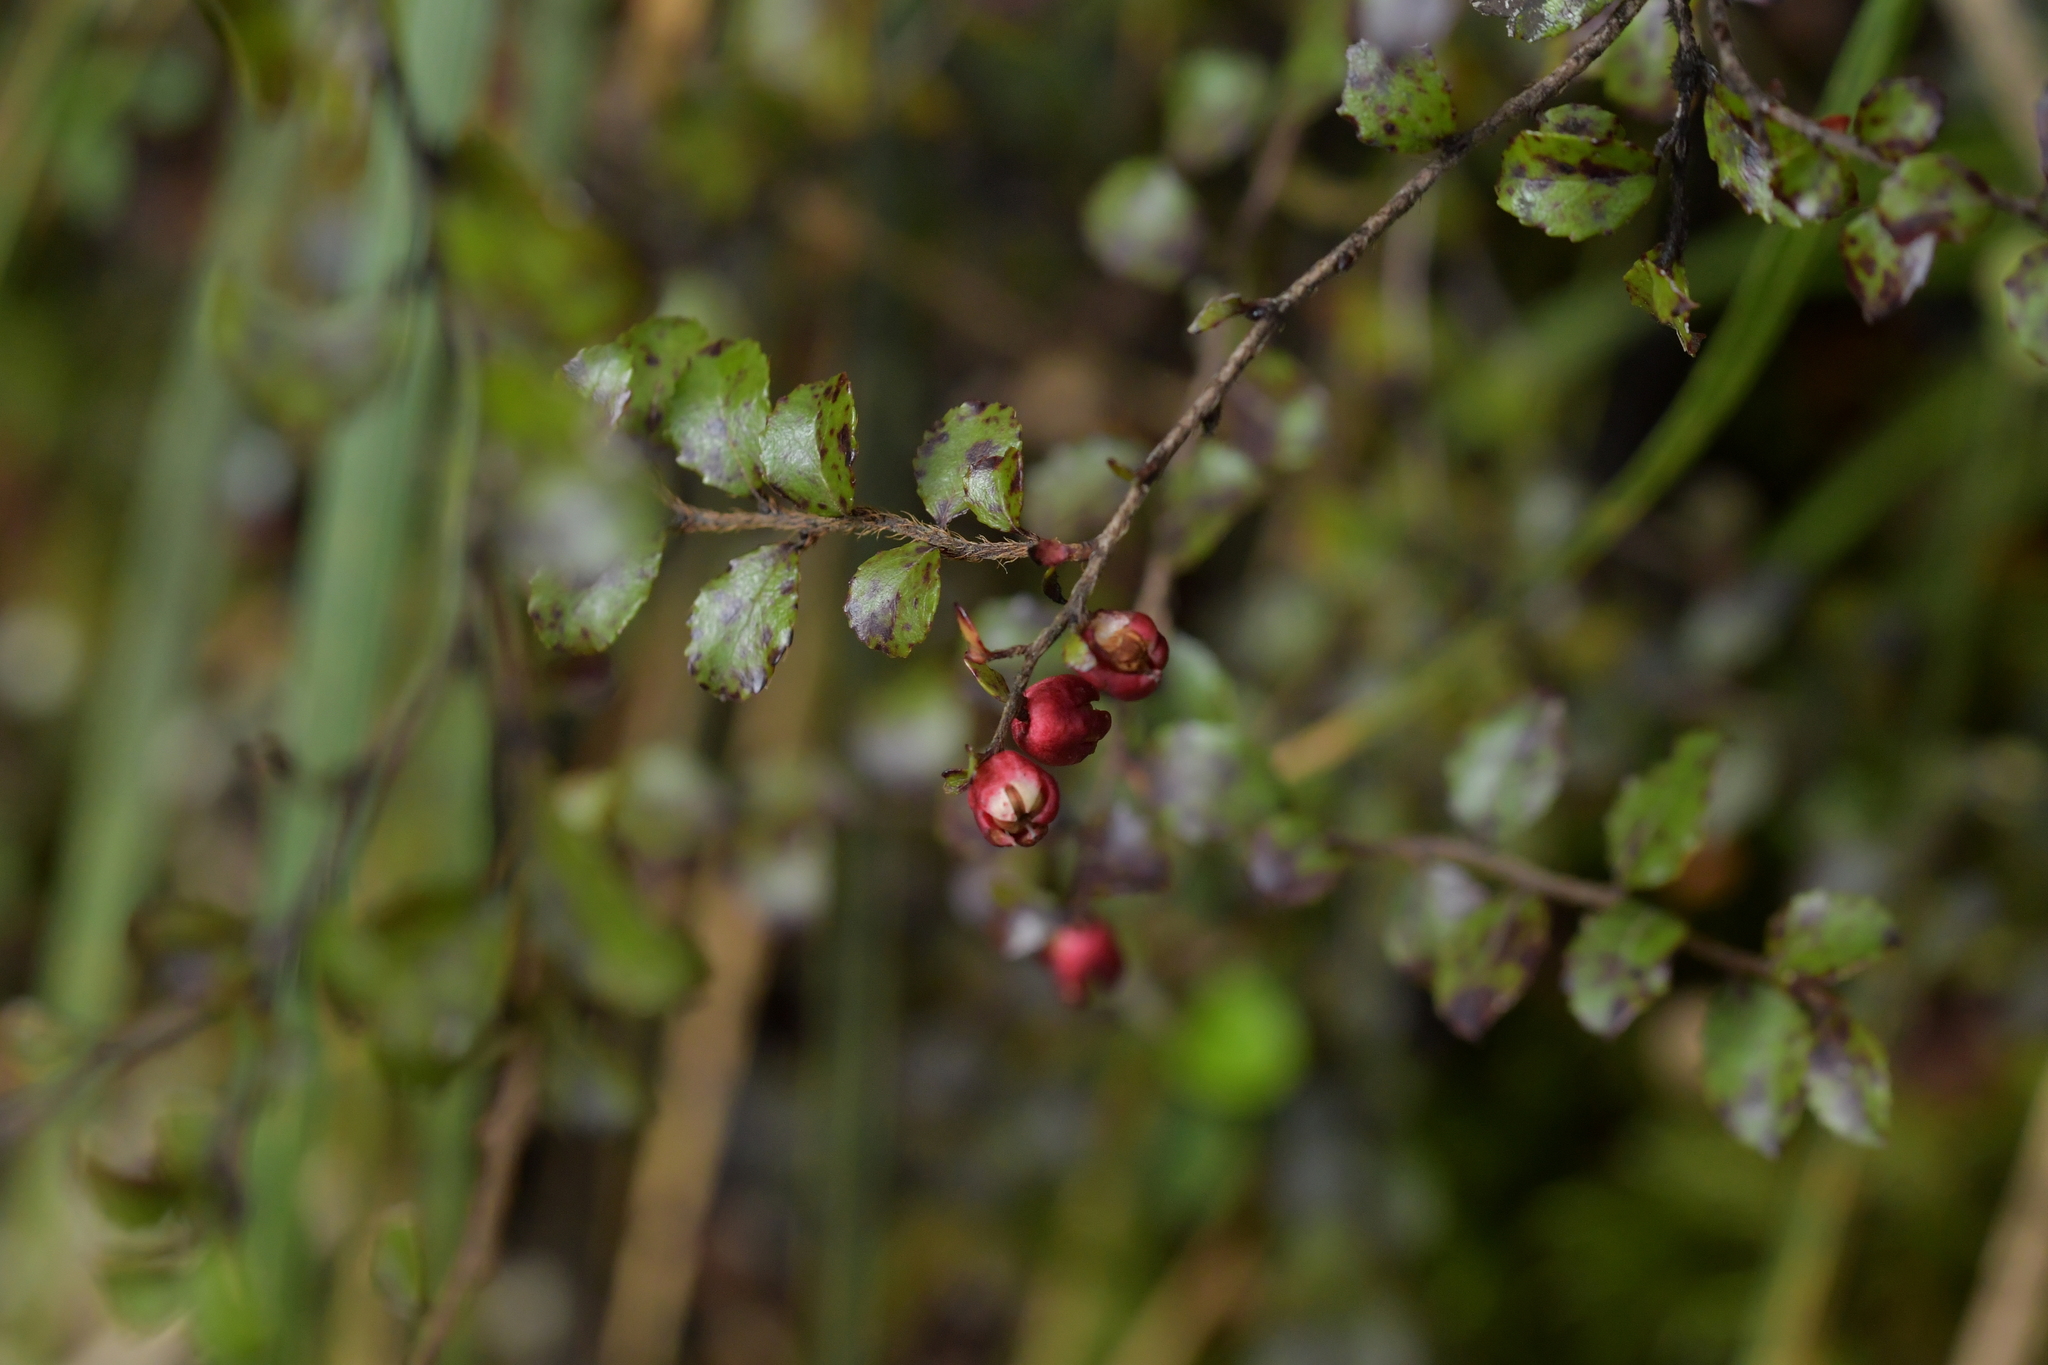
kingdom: Plantae
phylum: Tracheophyta
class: Magnoliopsida
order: Ericales
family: Ericaceae
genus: Gaultheria
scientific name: Gaultheria antipoda
